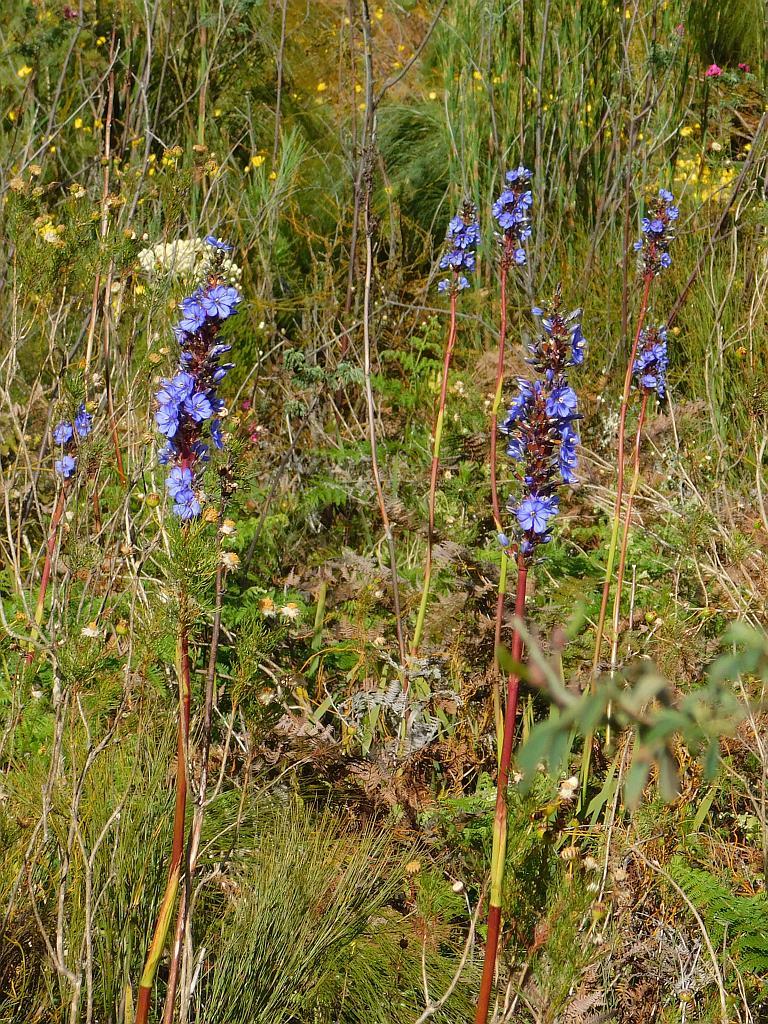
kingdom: Plantae
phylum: Tracheophyta
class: Liliopsida
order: Asparagales
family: Iridaceae
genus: Aristea
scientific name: Aristea capitata
